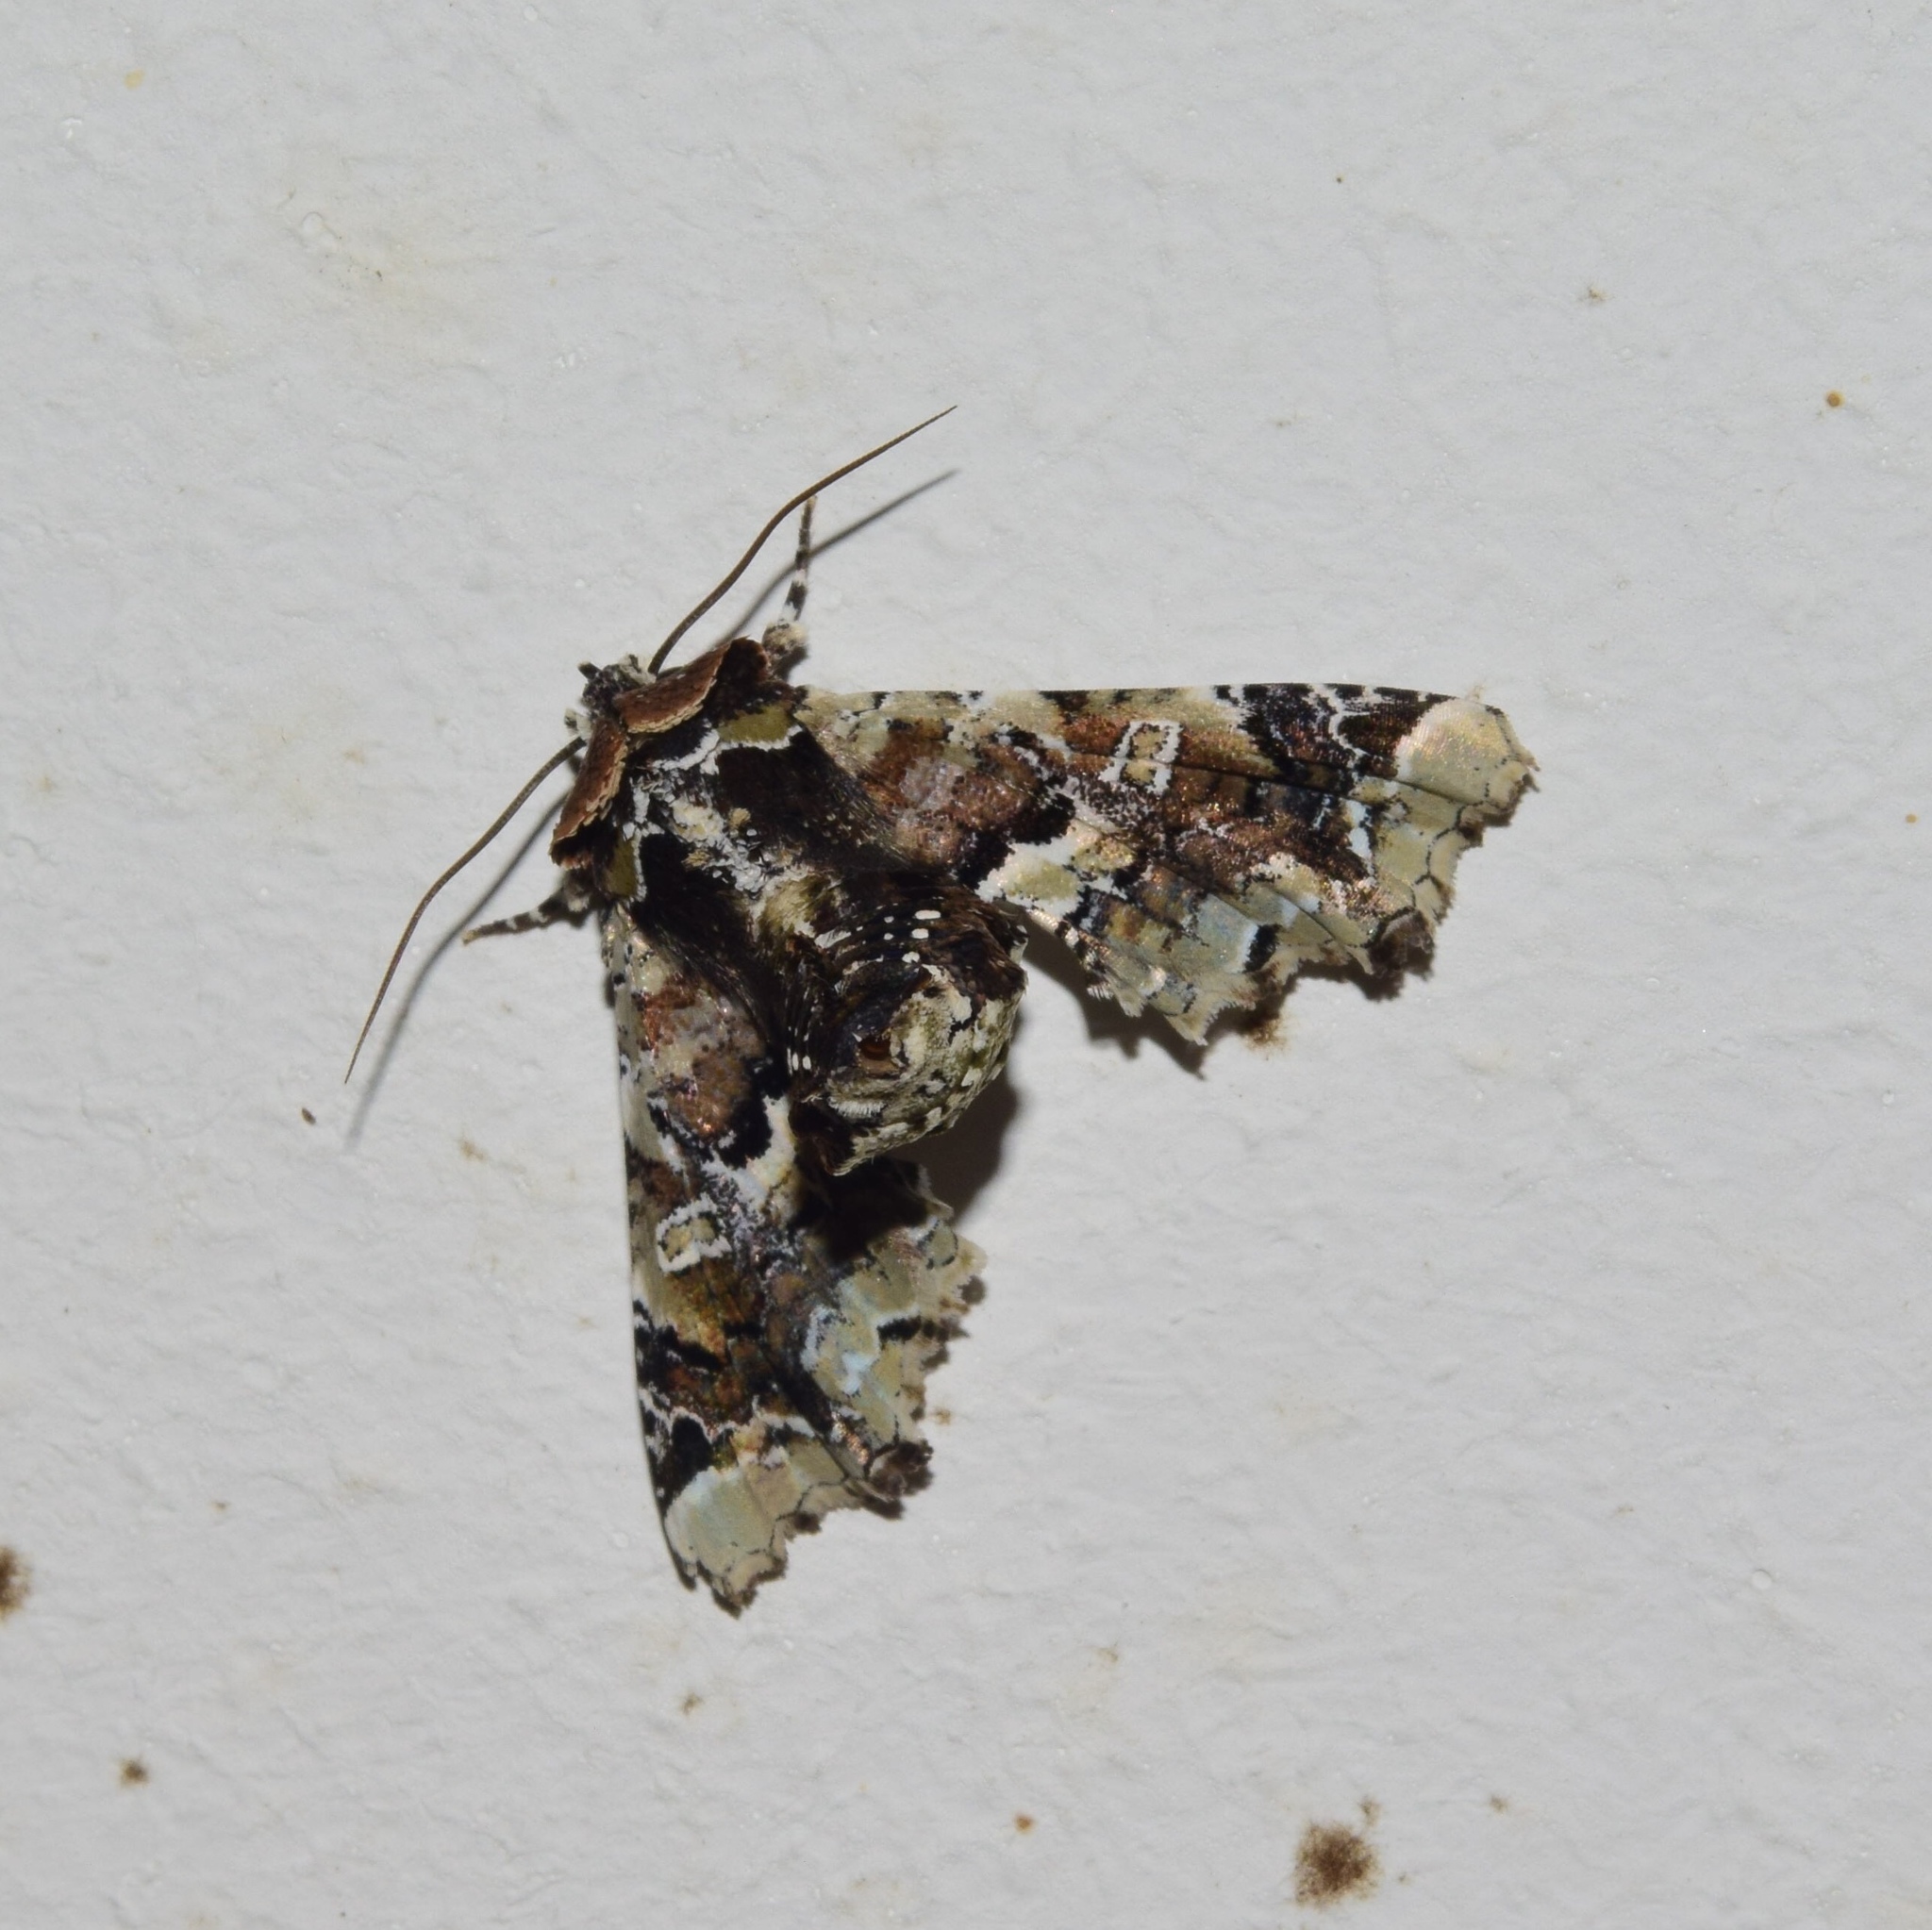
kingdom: Animalia
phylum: Arthropoda
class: Insecta
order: Lepidoptera
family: Euteliidae
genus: Eutelia
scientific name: Eutelia bowkeri
